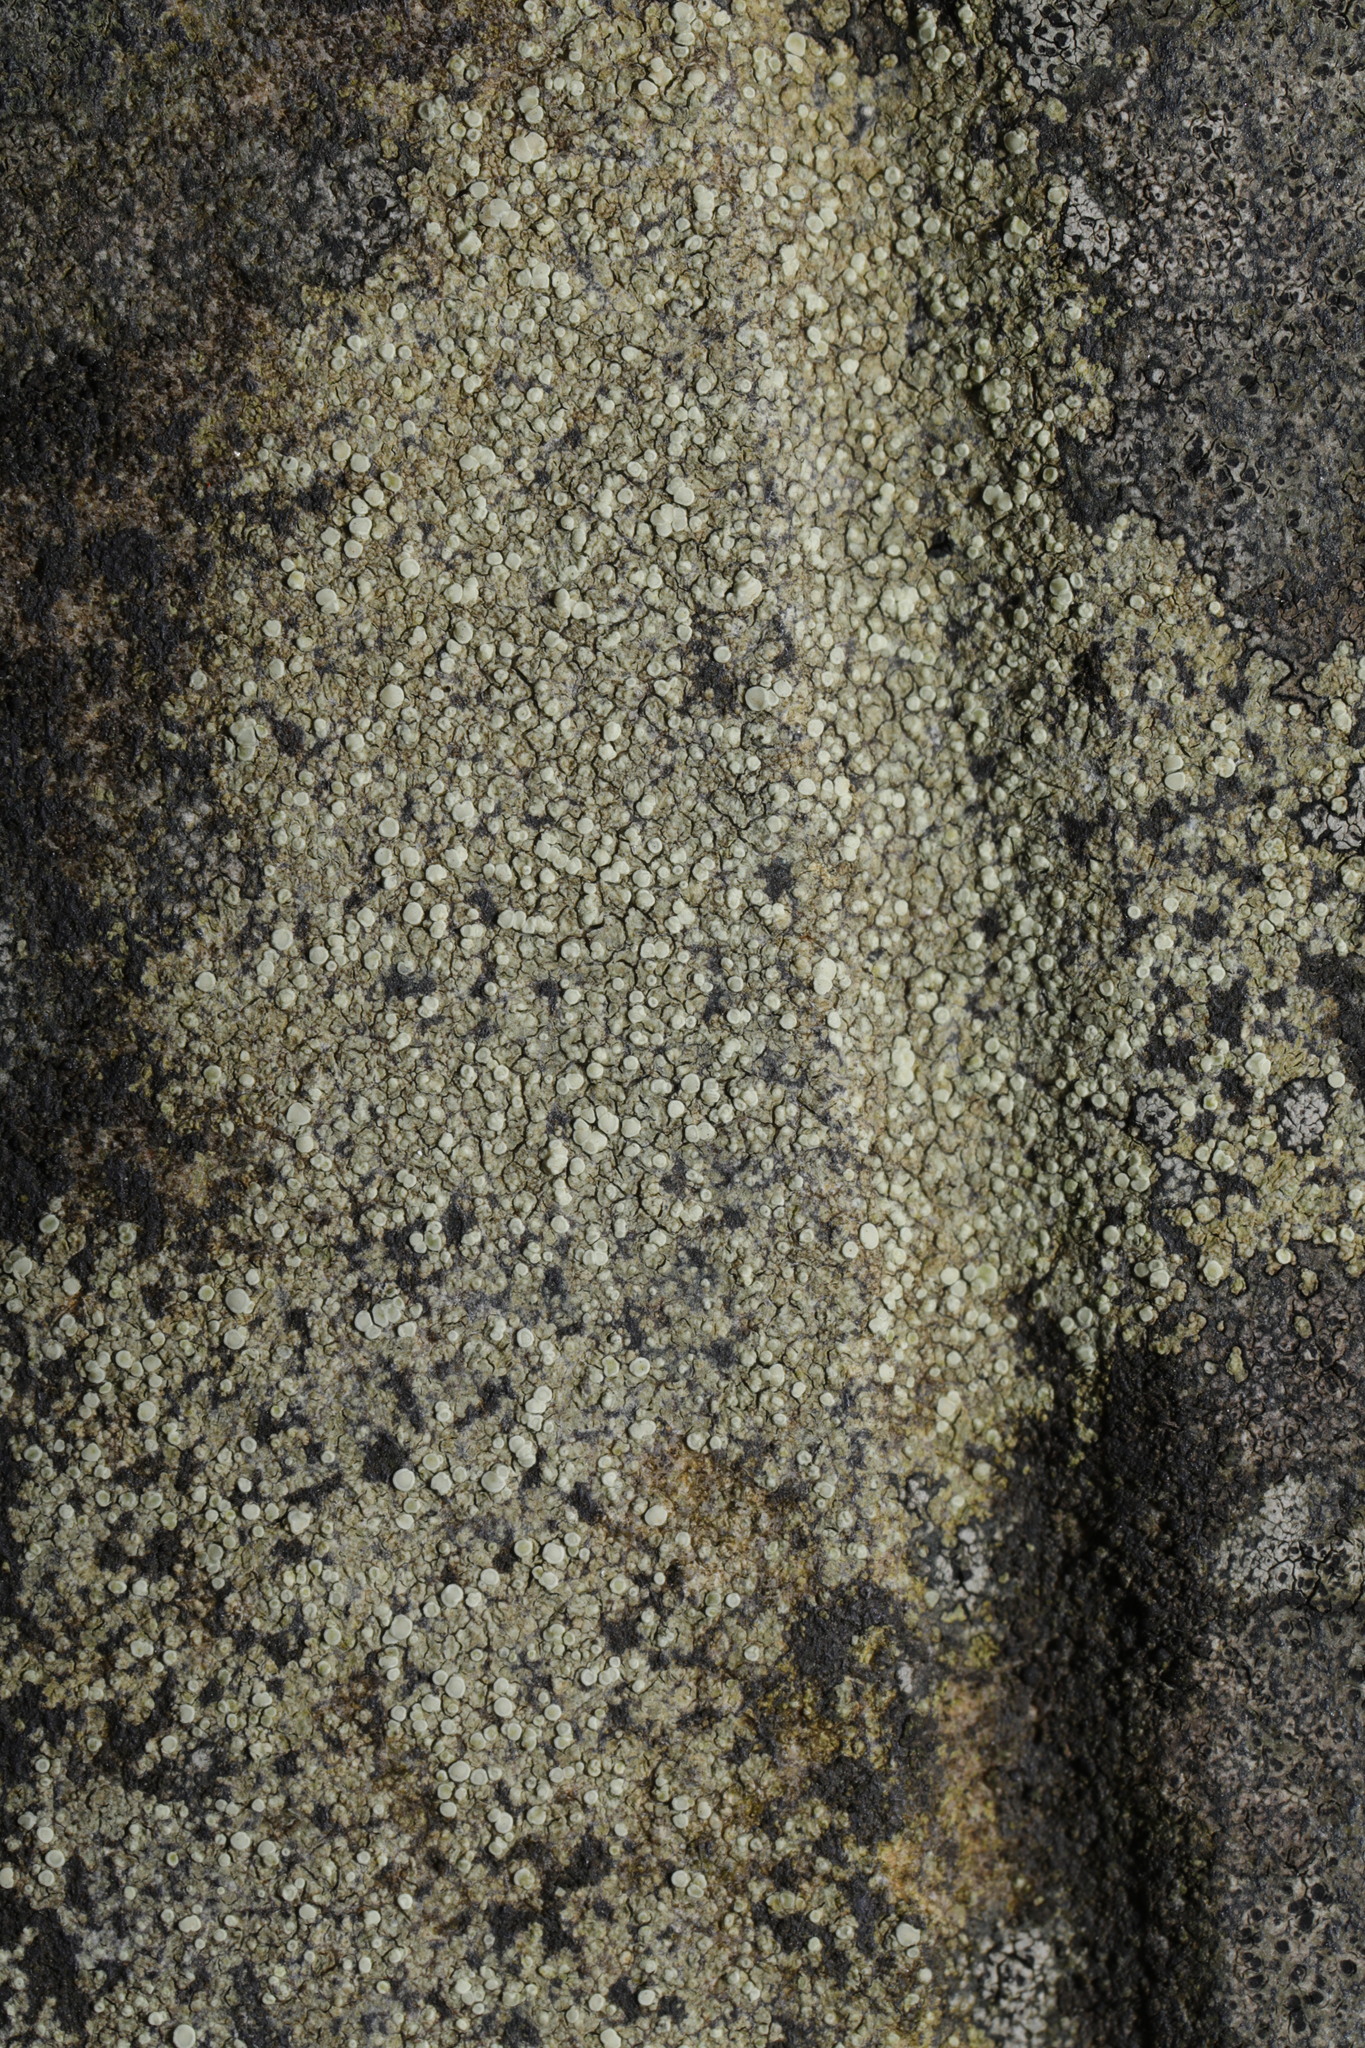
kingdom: Fungi
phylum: Ascomycota
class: Lecanoromycetes
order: Lecanorales
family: Lecanoraceae
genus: Lecanora
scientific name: Lecanora polytropa
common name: Granite-speck rim lichen
